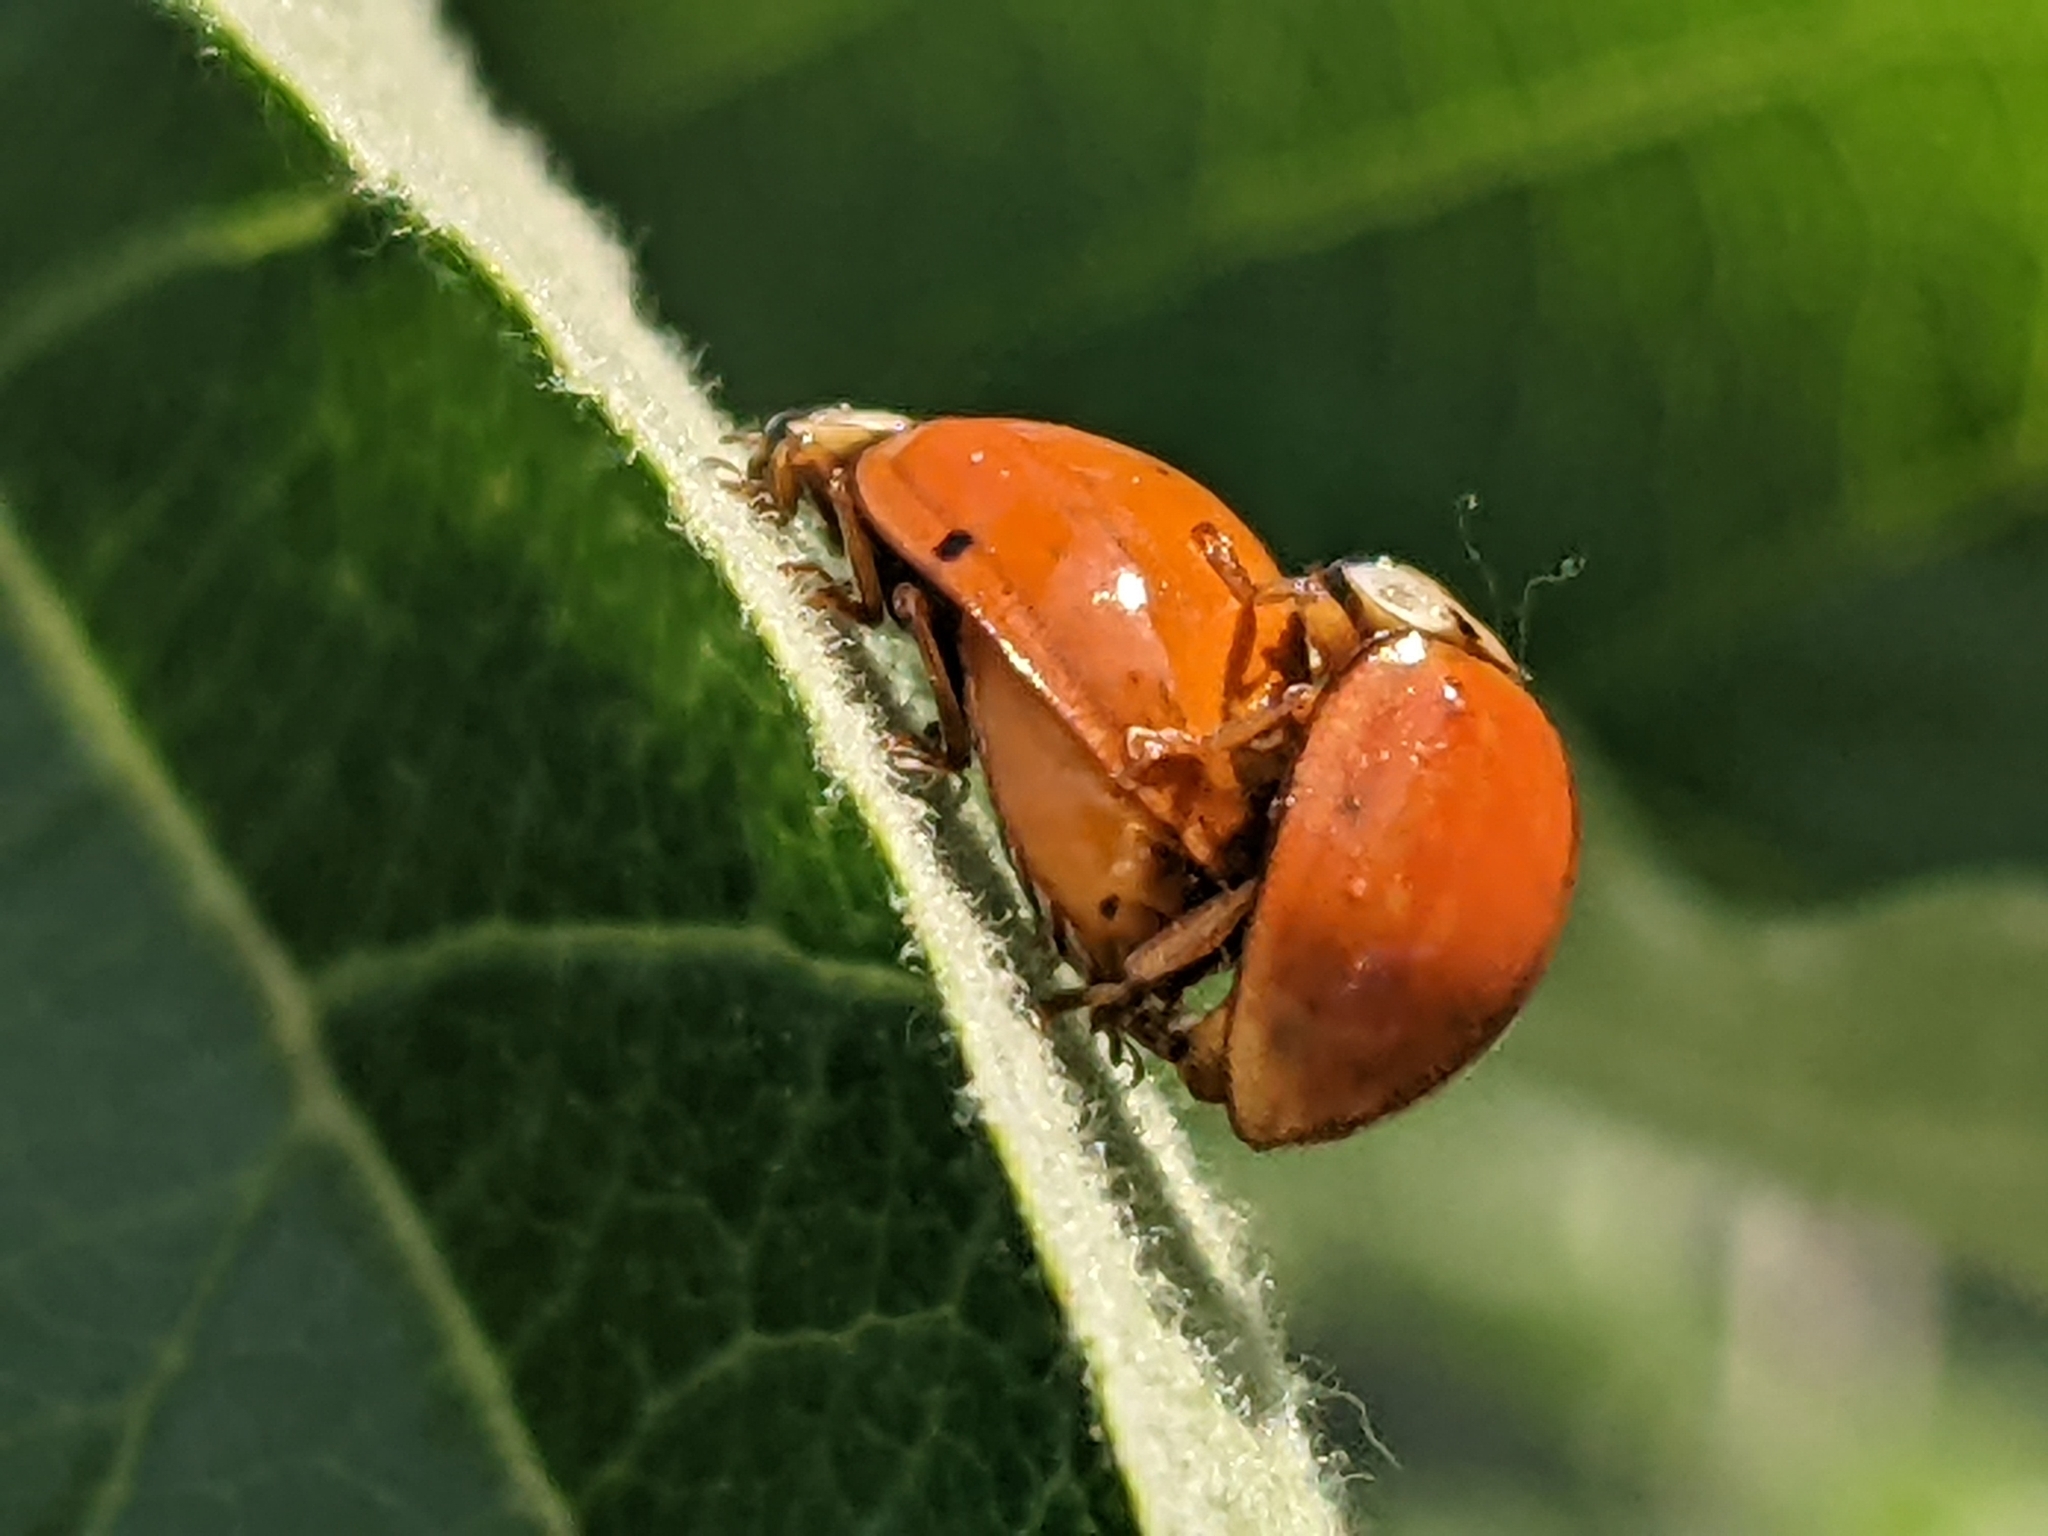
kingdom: Animalia
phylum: Arthropoda
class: Insecta
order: Coleoptera
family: Coccinellidae
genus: Harmonia
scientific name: Harmonia axyridis
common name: Harlequin ladybird
